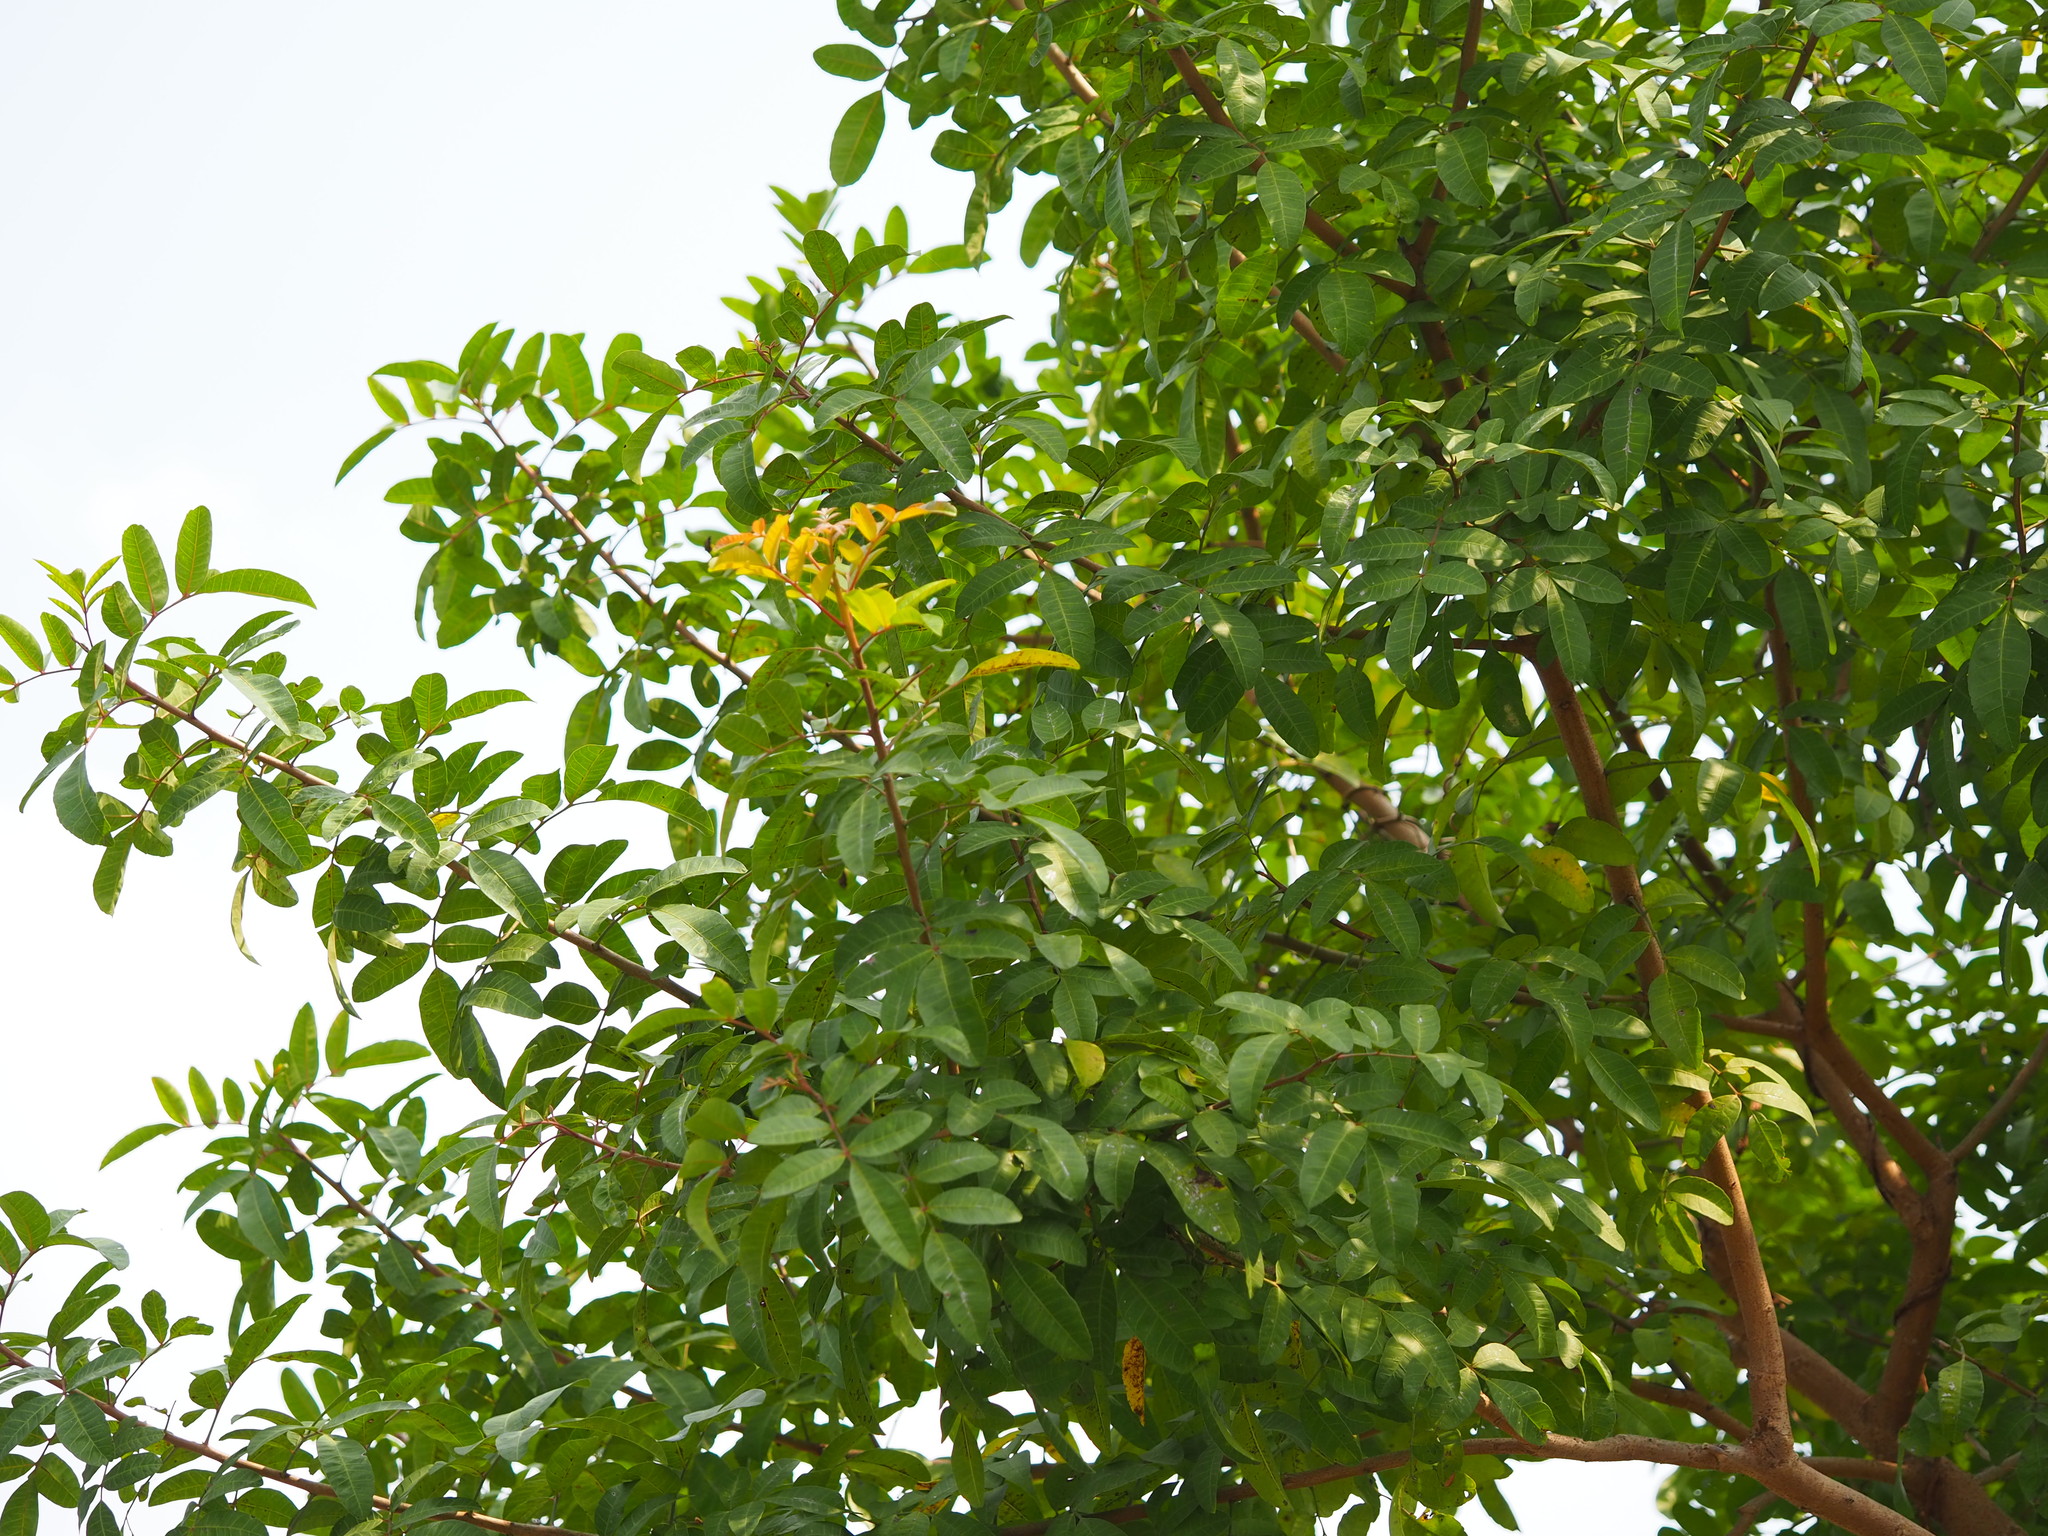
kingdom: Plantae
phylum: Tracheophyta
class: Magnoliopsida
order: Sapindales
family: Anacardiaceae
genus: Schinus
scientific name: Schinus terebinthifolia
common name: Brazilian peppertree
